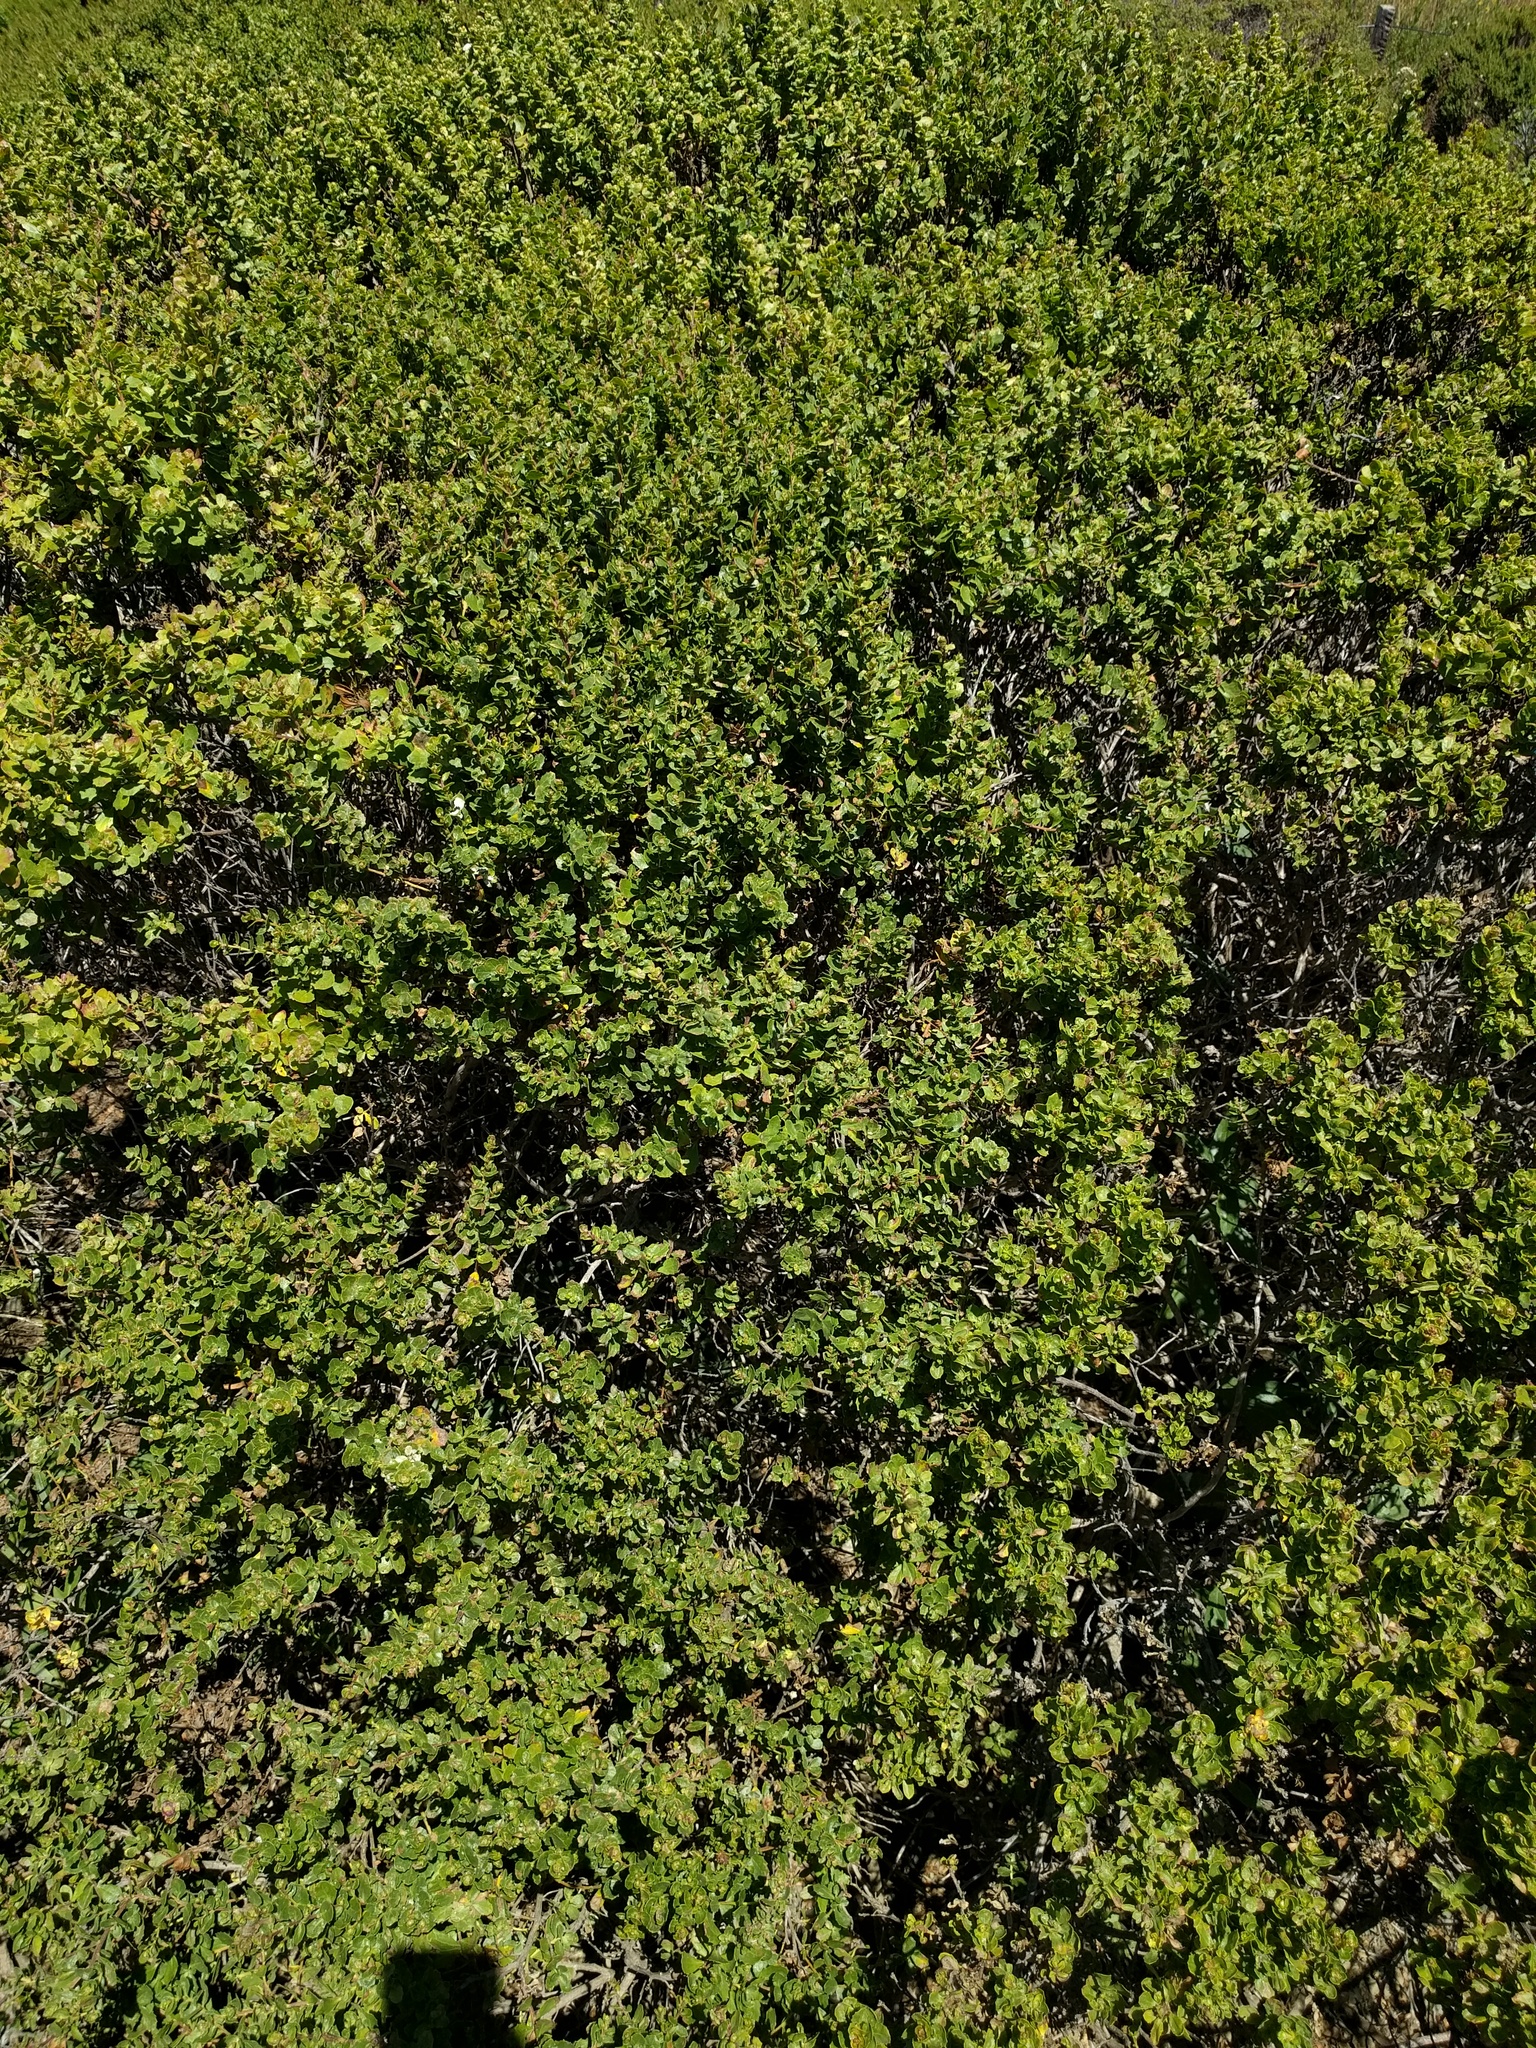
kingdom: Plantae
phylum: Tracheophyta
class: Magnoliopsida
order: Asterales
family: Asteraceae
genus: Baccharis
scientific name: Baccharis pilularis
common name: Coyotebrush
